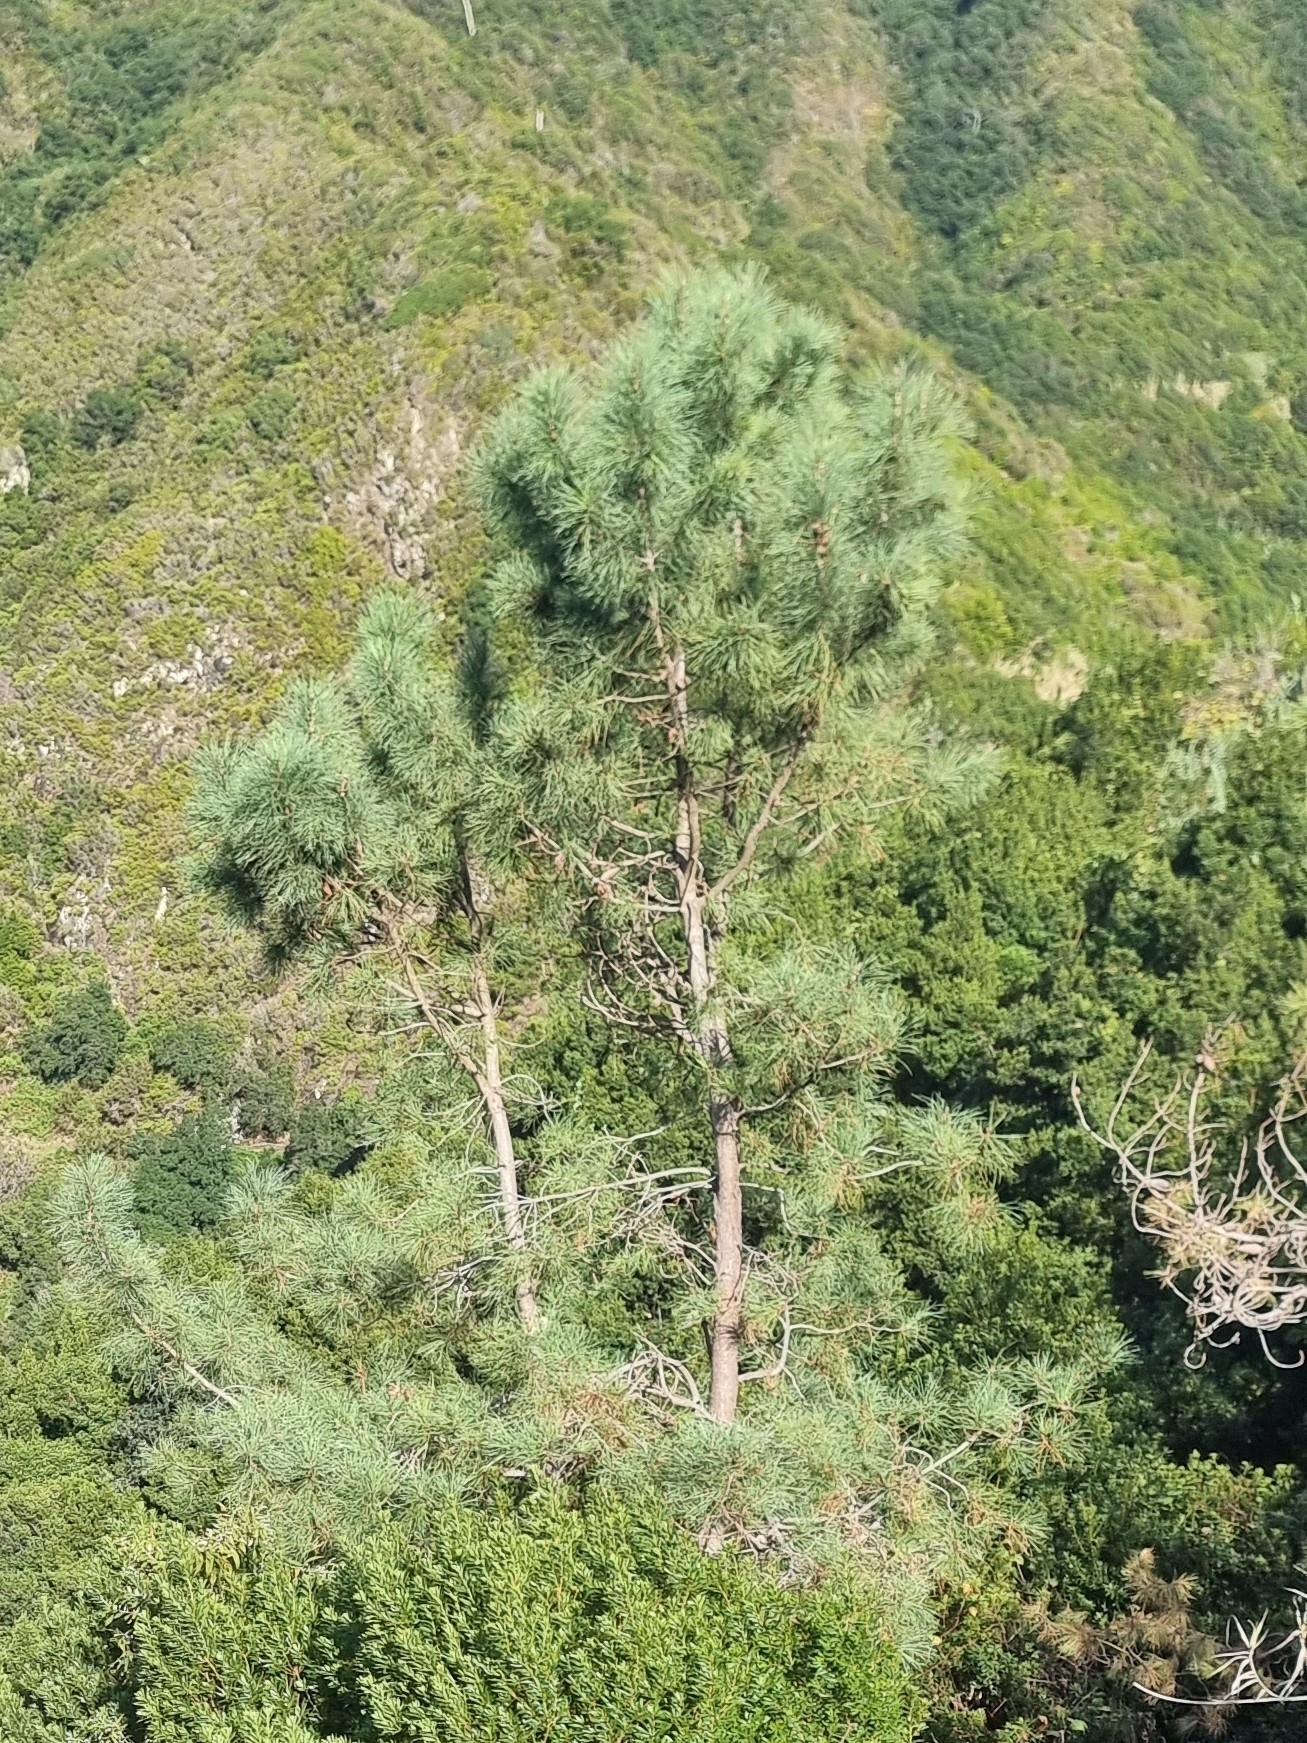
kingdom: Plantae
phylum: Tracheophyta
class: Pinopsida
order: Pinales
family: Pinaceae
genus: Pinus
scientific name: Pinus pinaster
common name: Maritime pine
